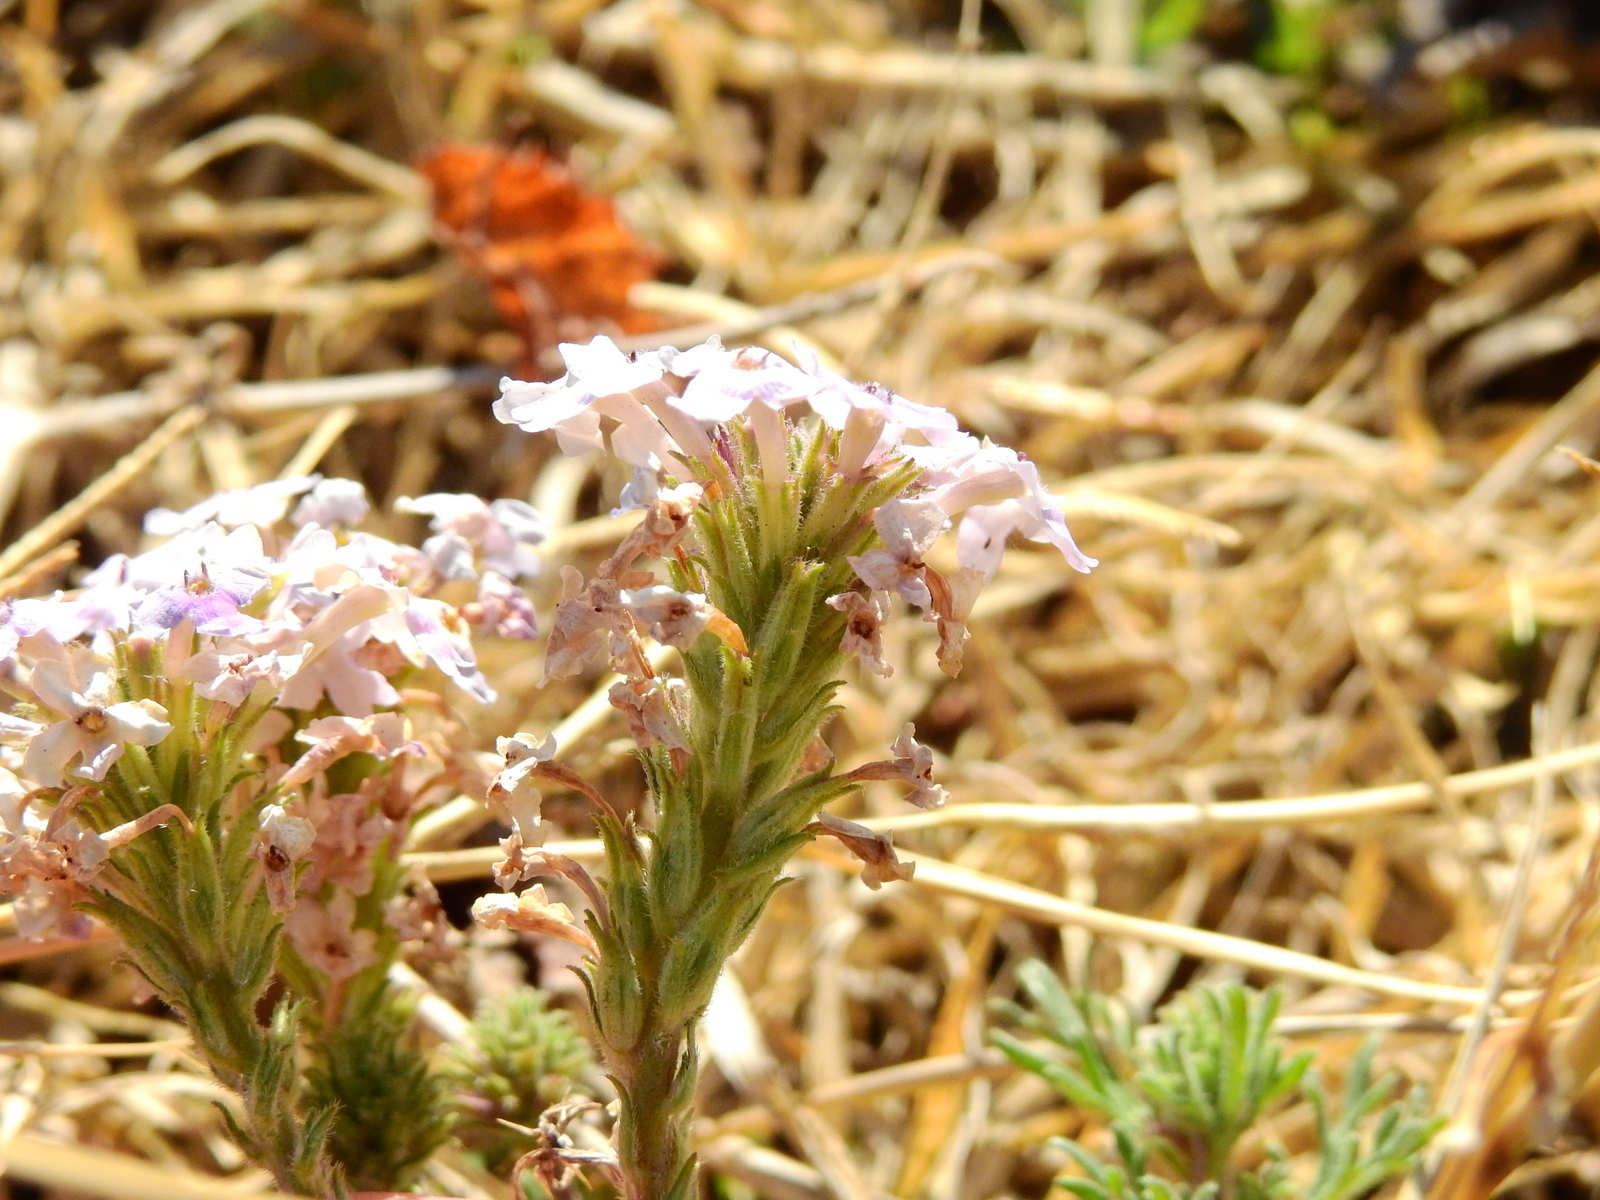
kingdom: Plantae
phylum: Tracheophyta
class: Magnoliopsida
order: Lamiales
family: Verbenaceae
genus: Verbena
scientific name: Verbena parodii
